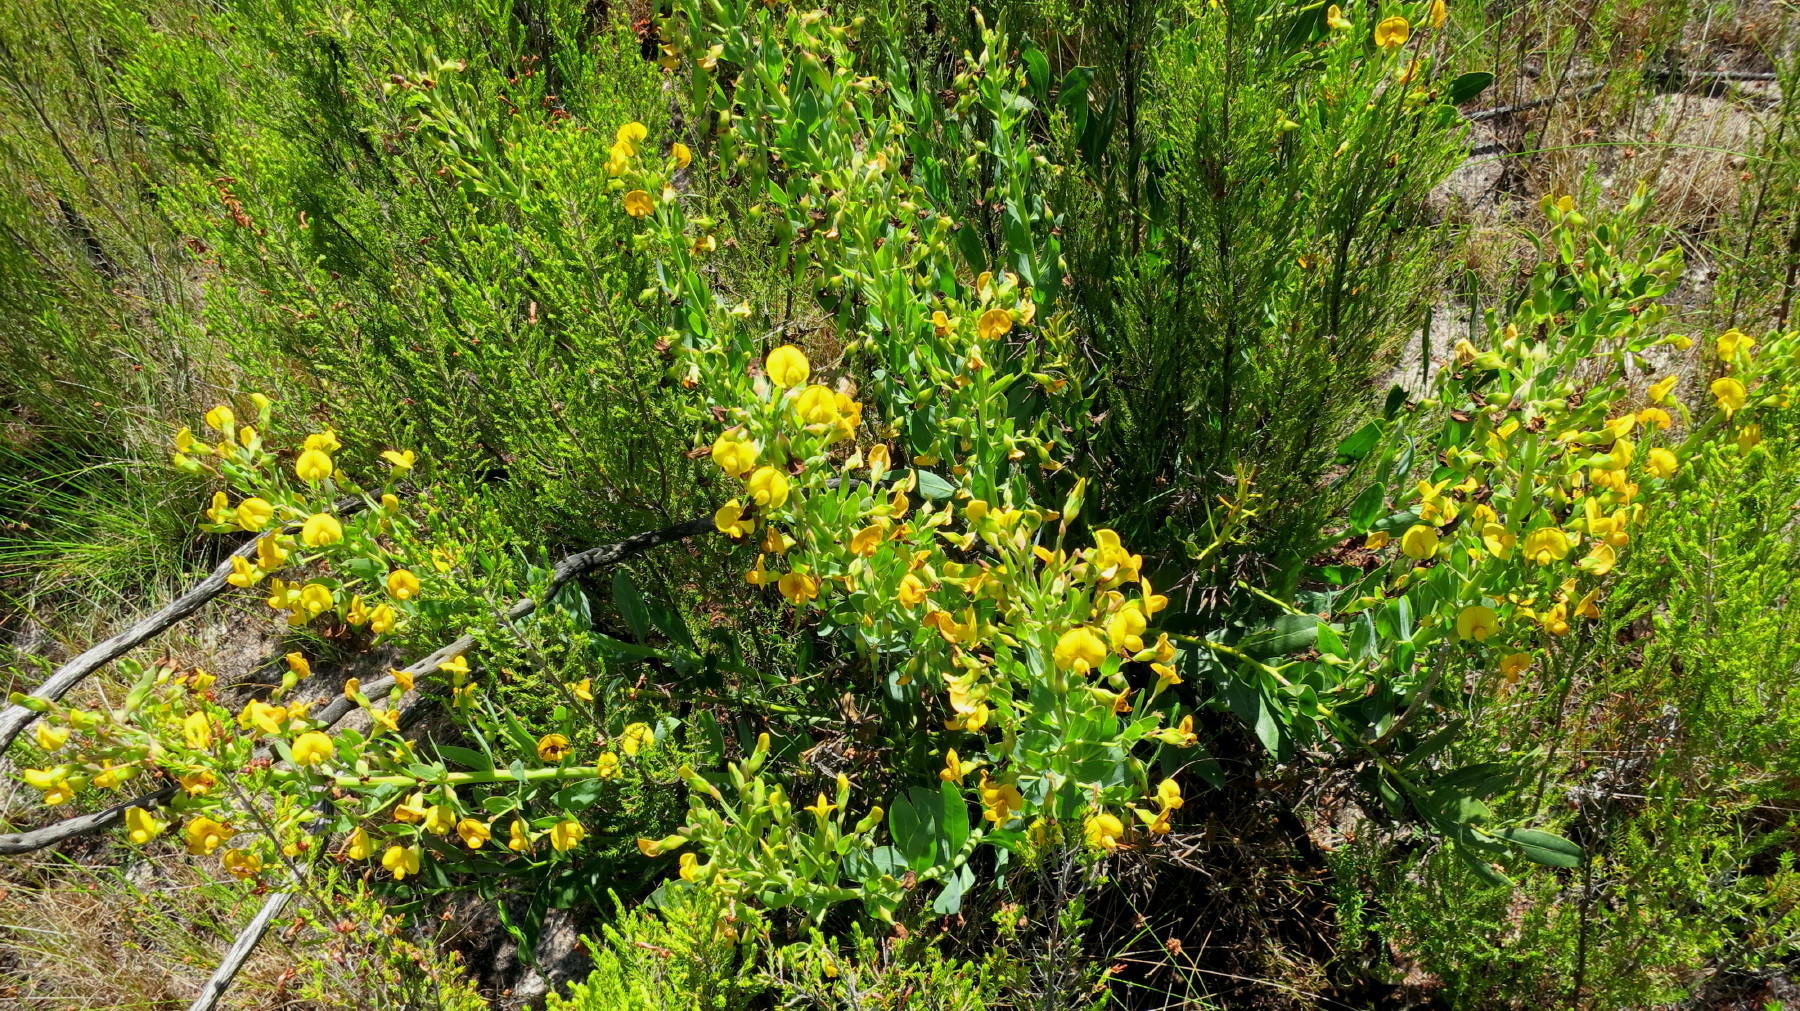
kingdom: Plantae
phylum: Tracheophyta
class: Magnoliopsida
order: Fabales
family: Fabaceae
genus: Rafnia
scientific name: Rafnia elliptica
